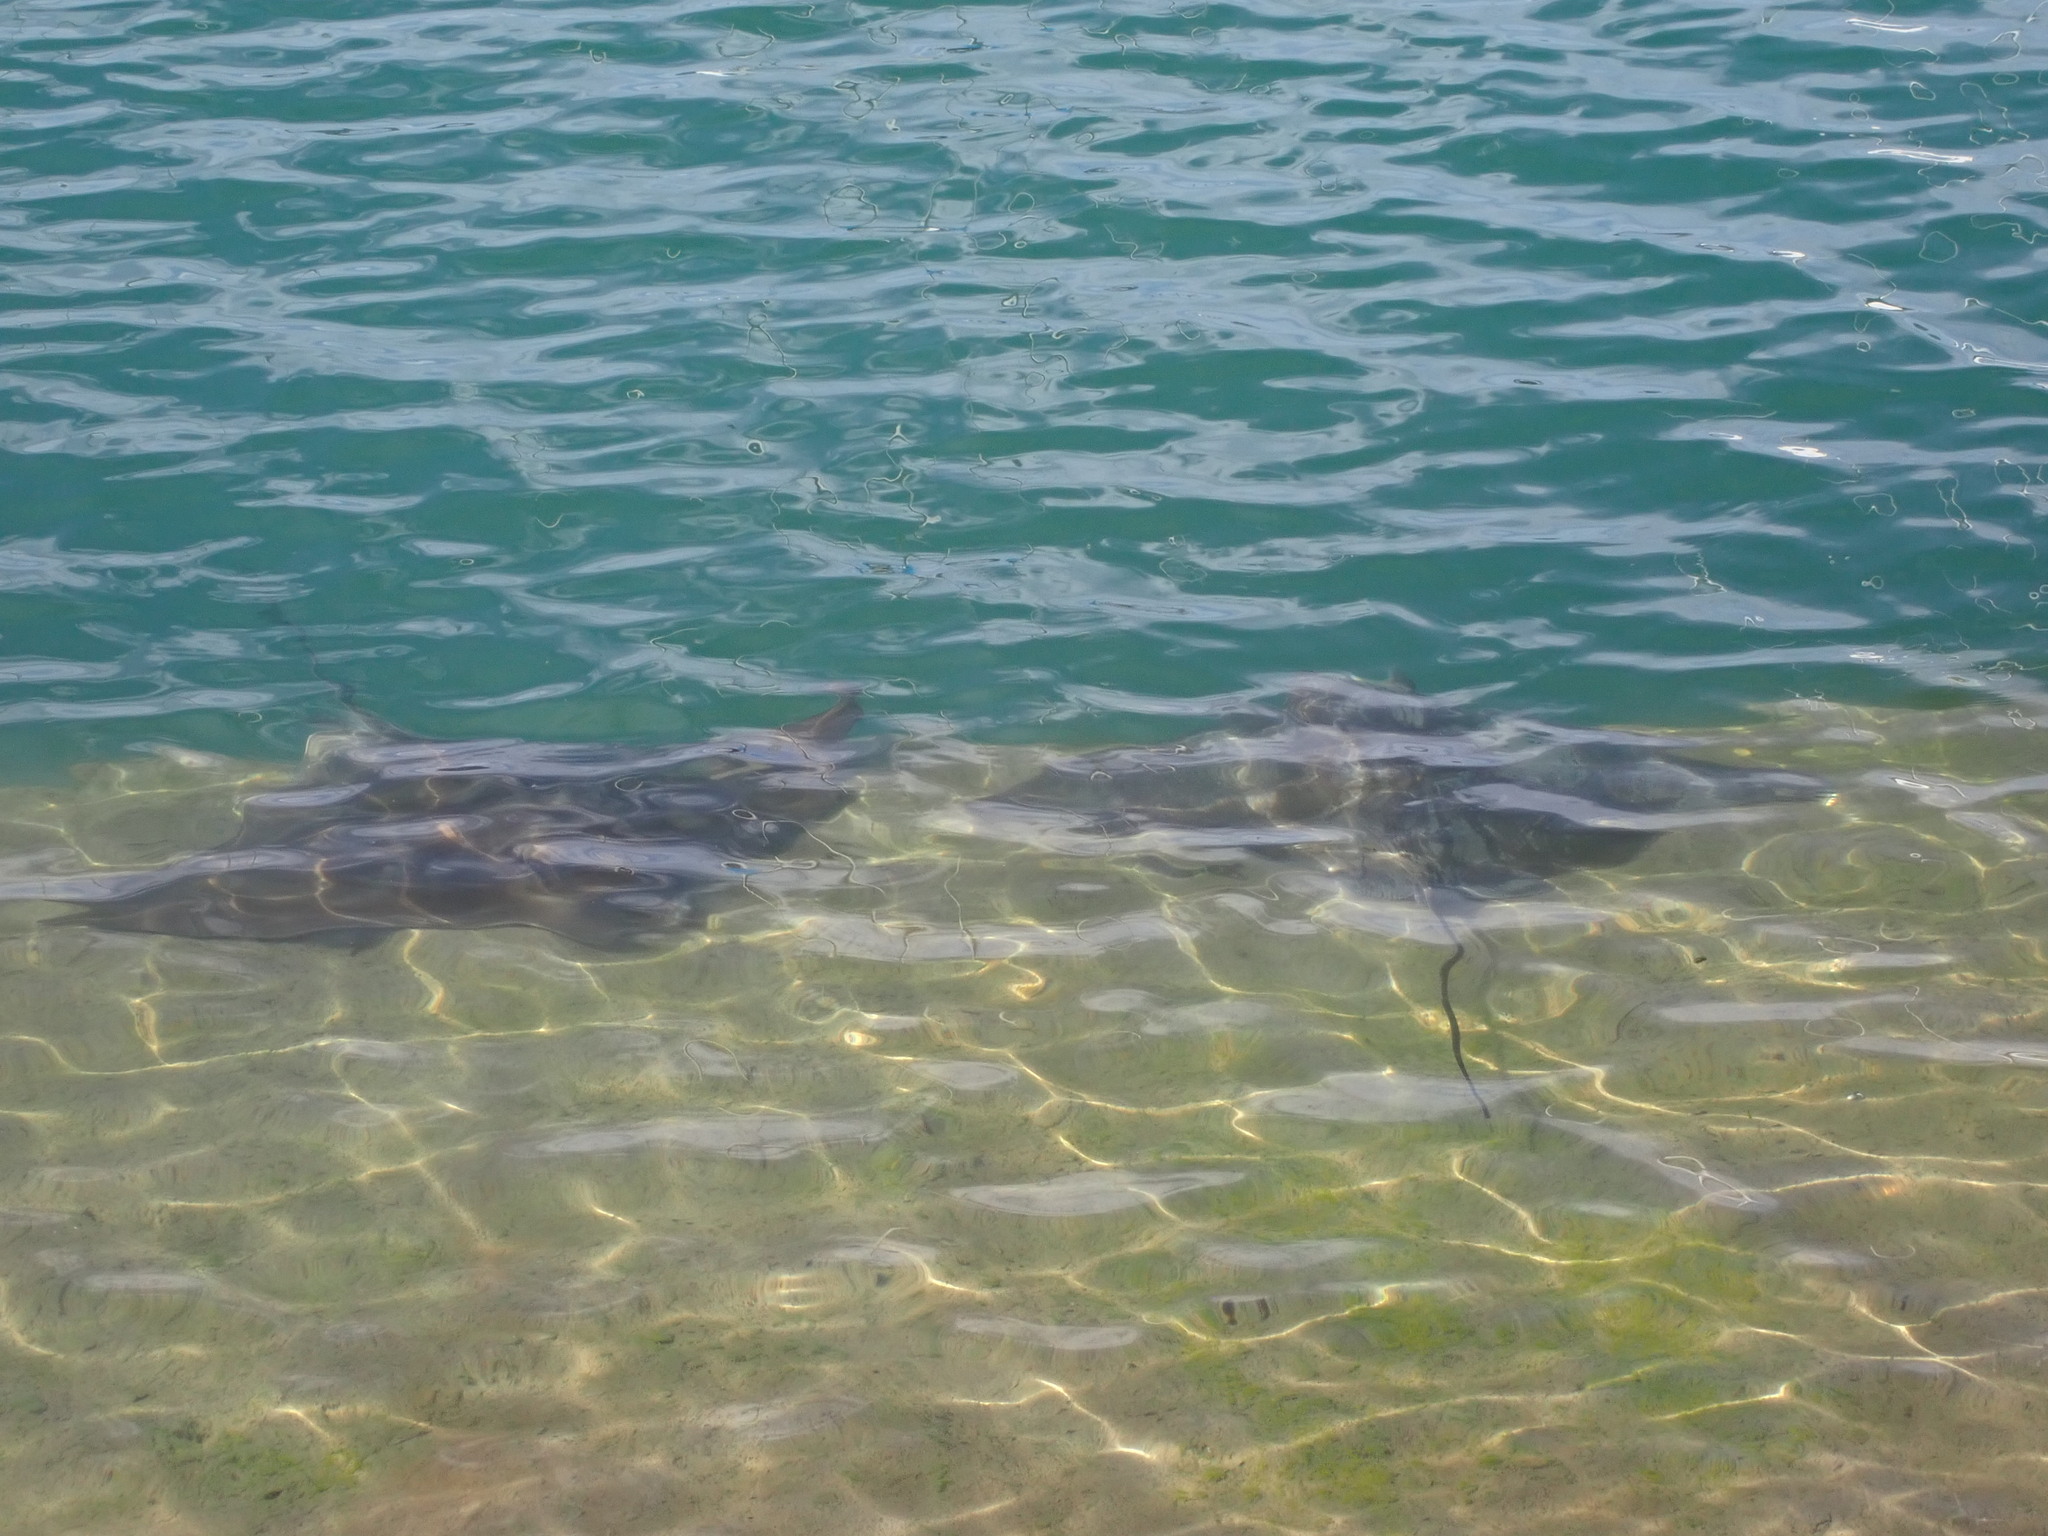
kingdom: Animalia
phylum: Chordata
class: Elasmobranchii
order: Myliobatiformes
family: Myliobatidae
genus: Myliobatis
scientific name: Myliobatis tenuicaudatus
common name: Eagle ray
